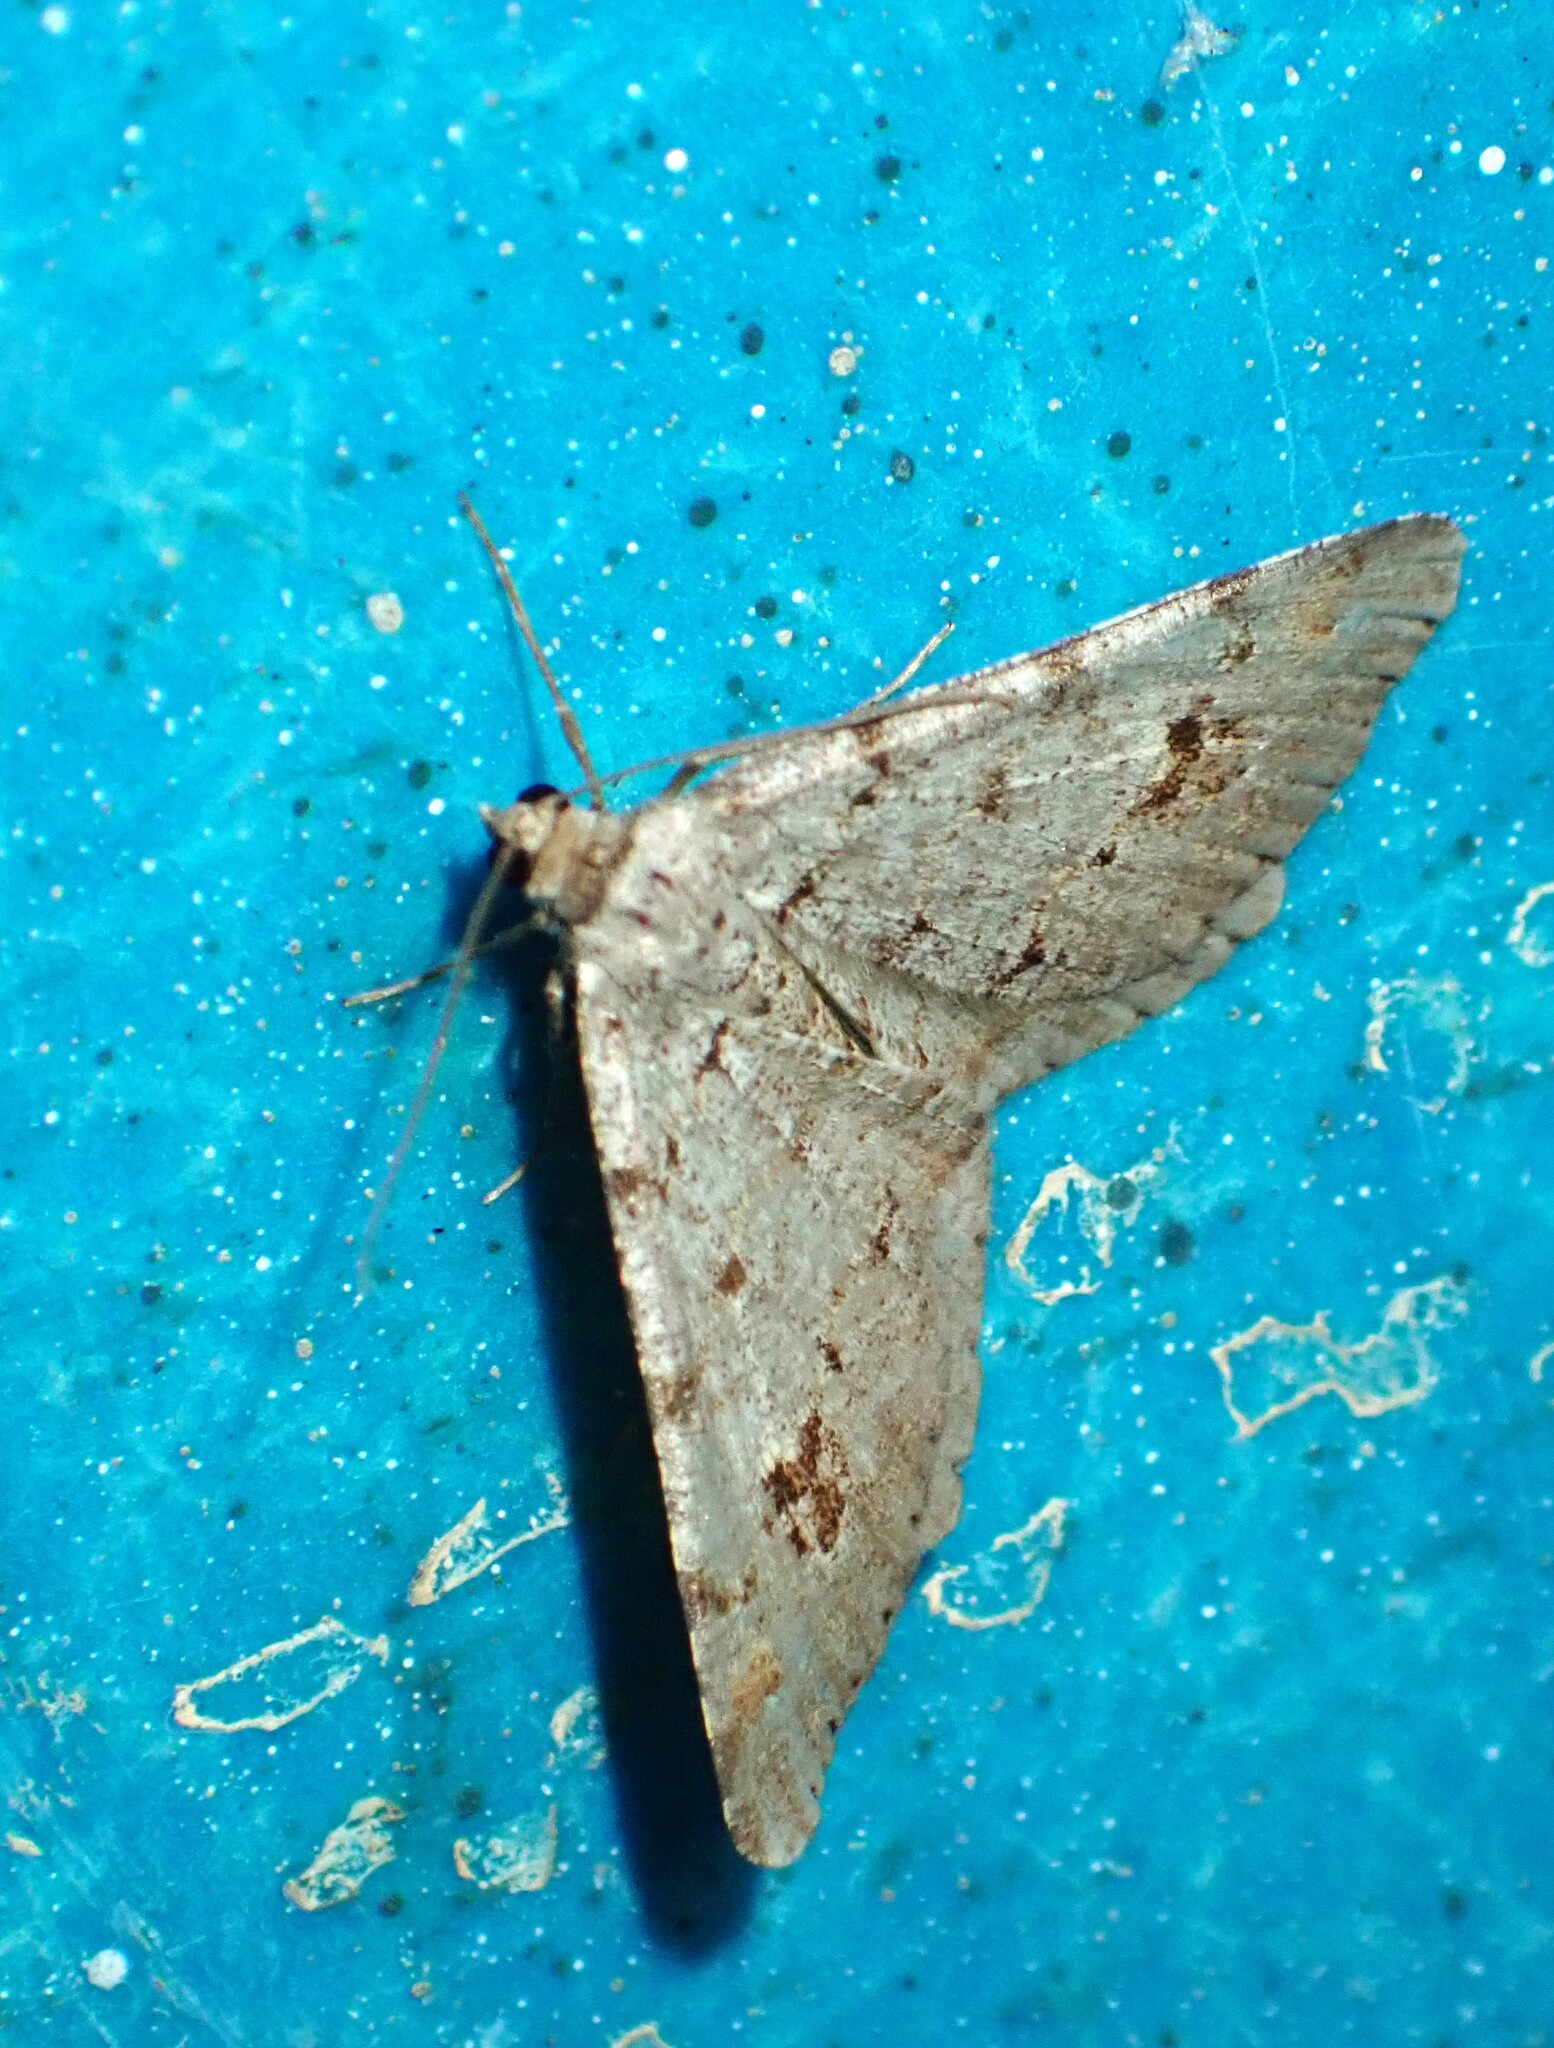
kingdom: Animalia
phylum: Arthropoda
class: Insecta
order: Lepidoptera
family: Geometridae
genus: Macaria
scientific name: Macaria signaria
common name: Dusky peacock
